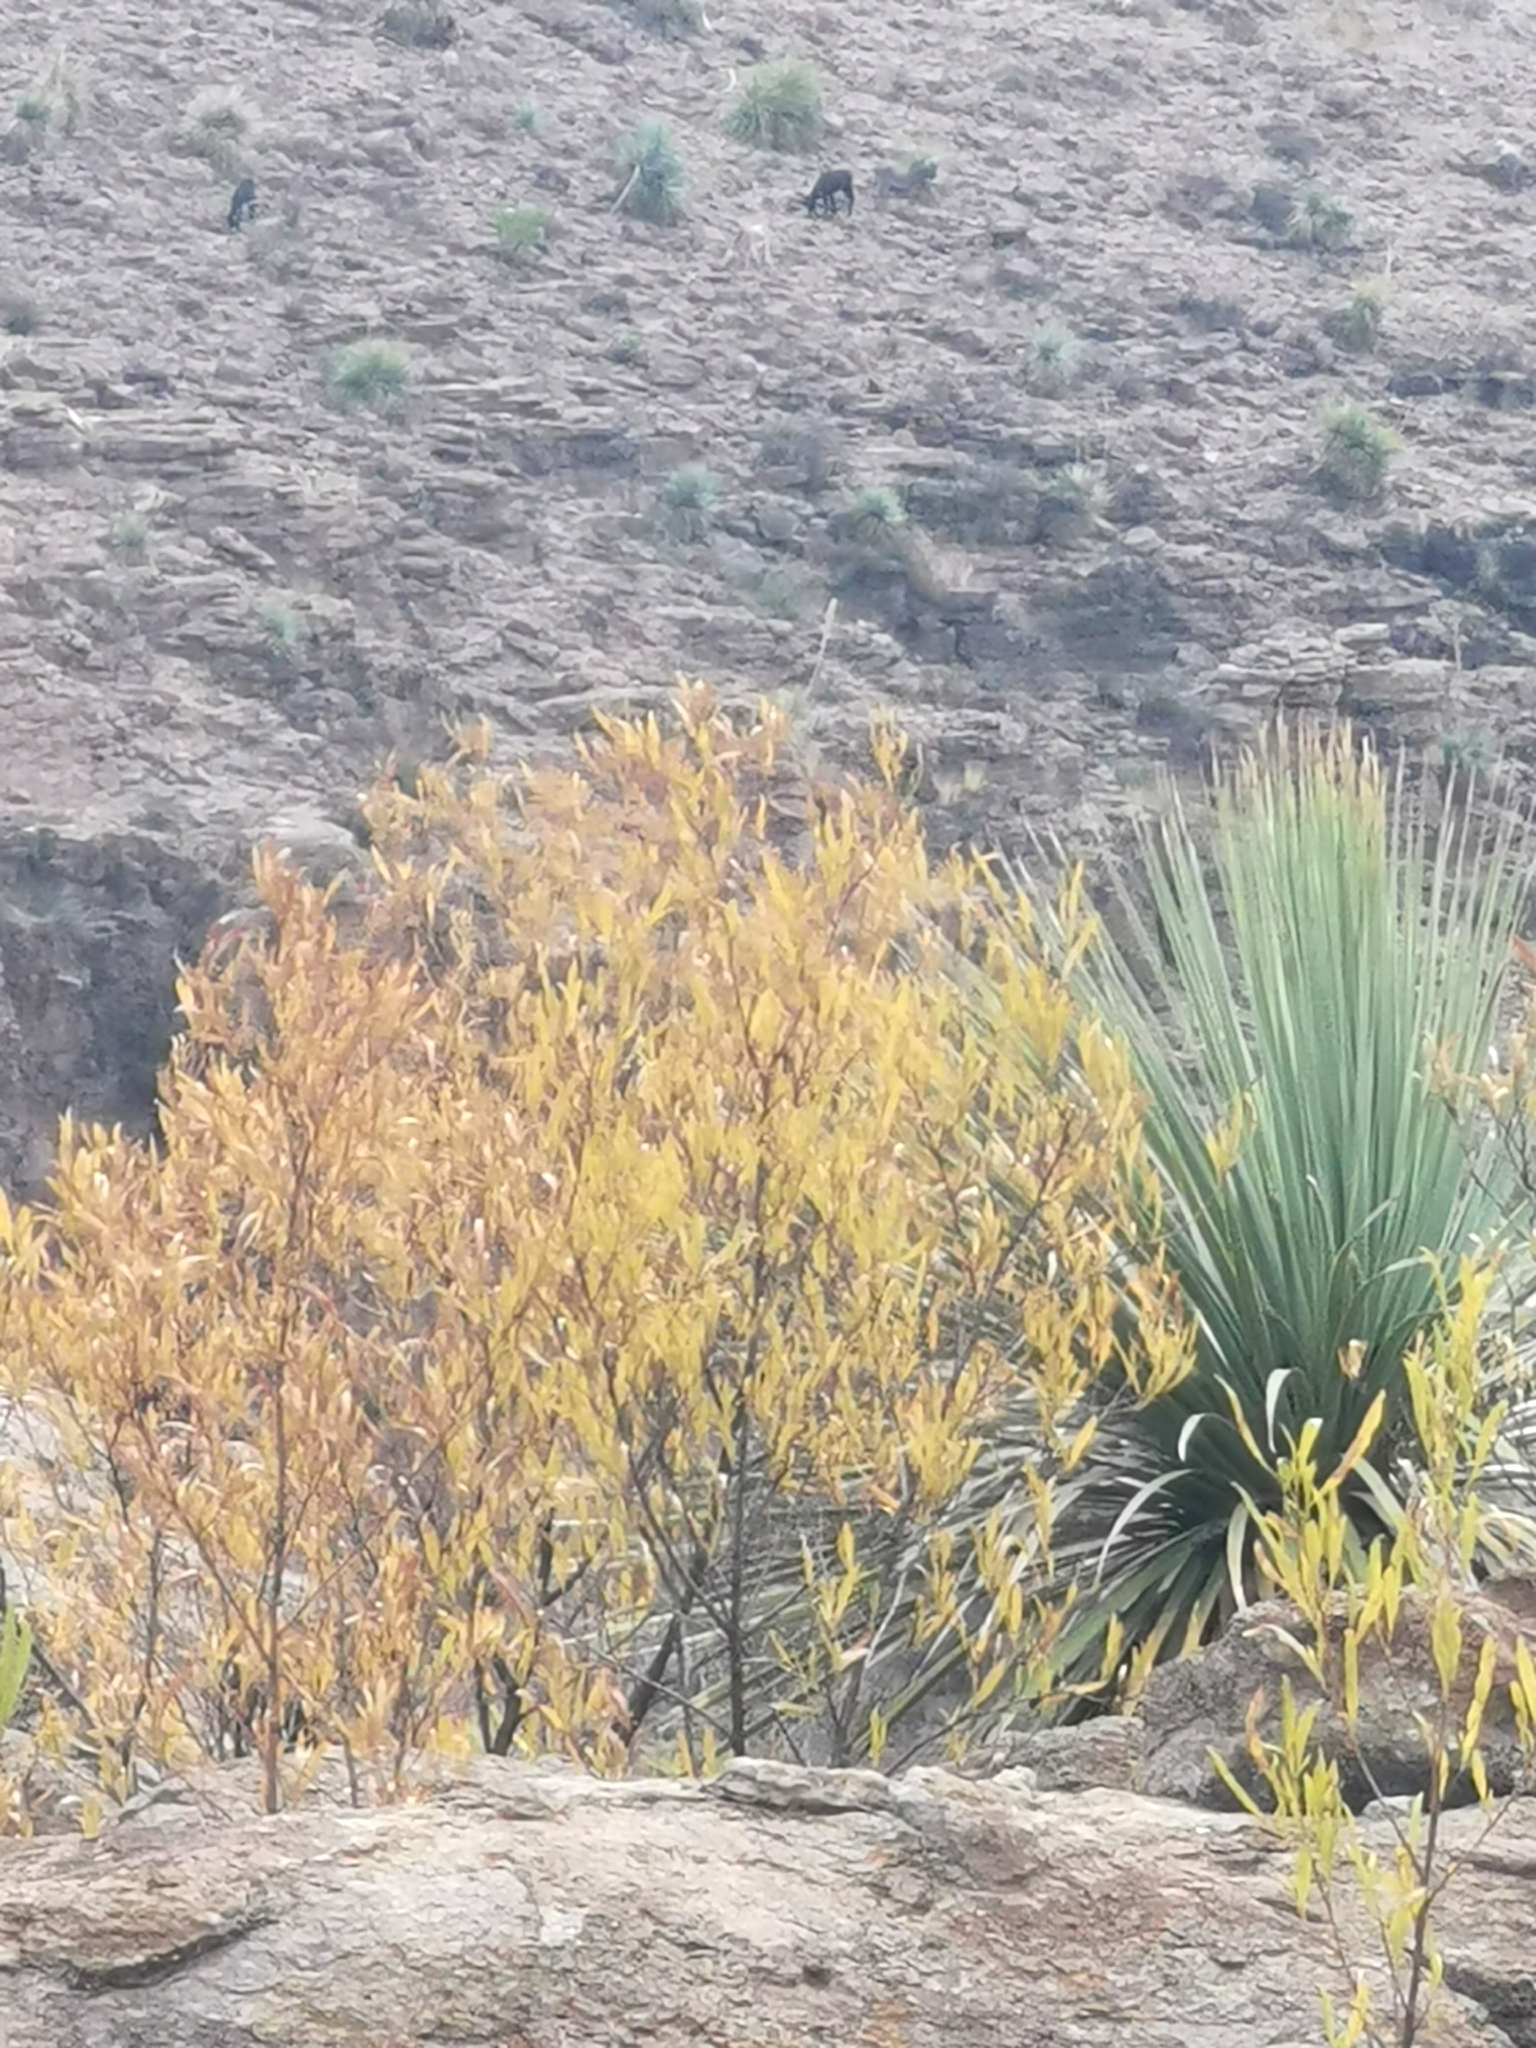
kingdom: Plantae
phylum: Tracheophyta
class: Magnoliopsida
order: Sapindales
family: Sapindaceae
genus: Dodonaea
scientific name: Dodonaea viscosa
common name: Hopbush
